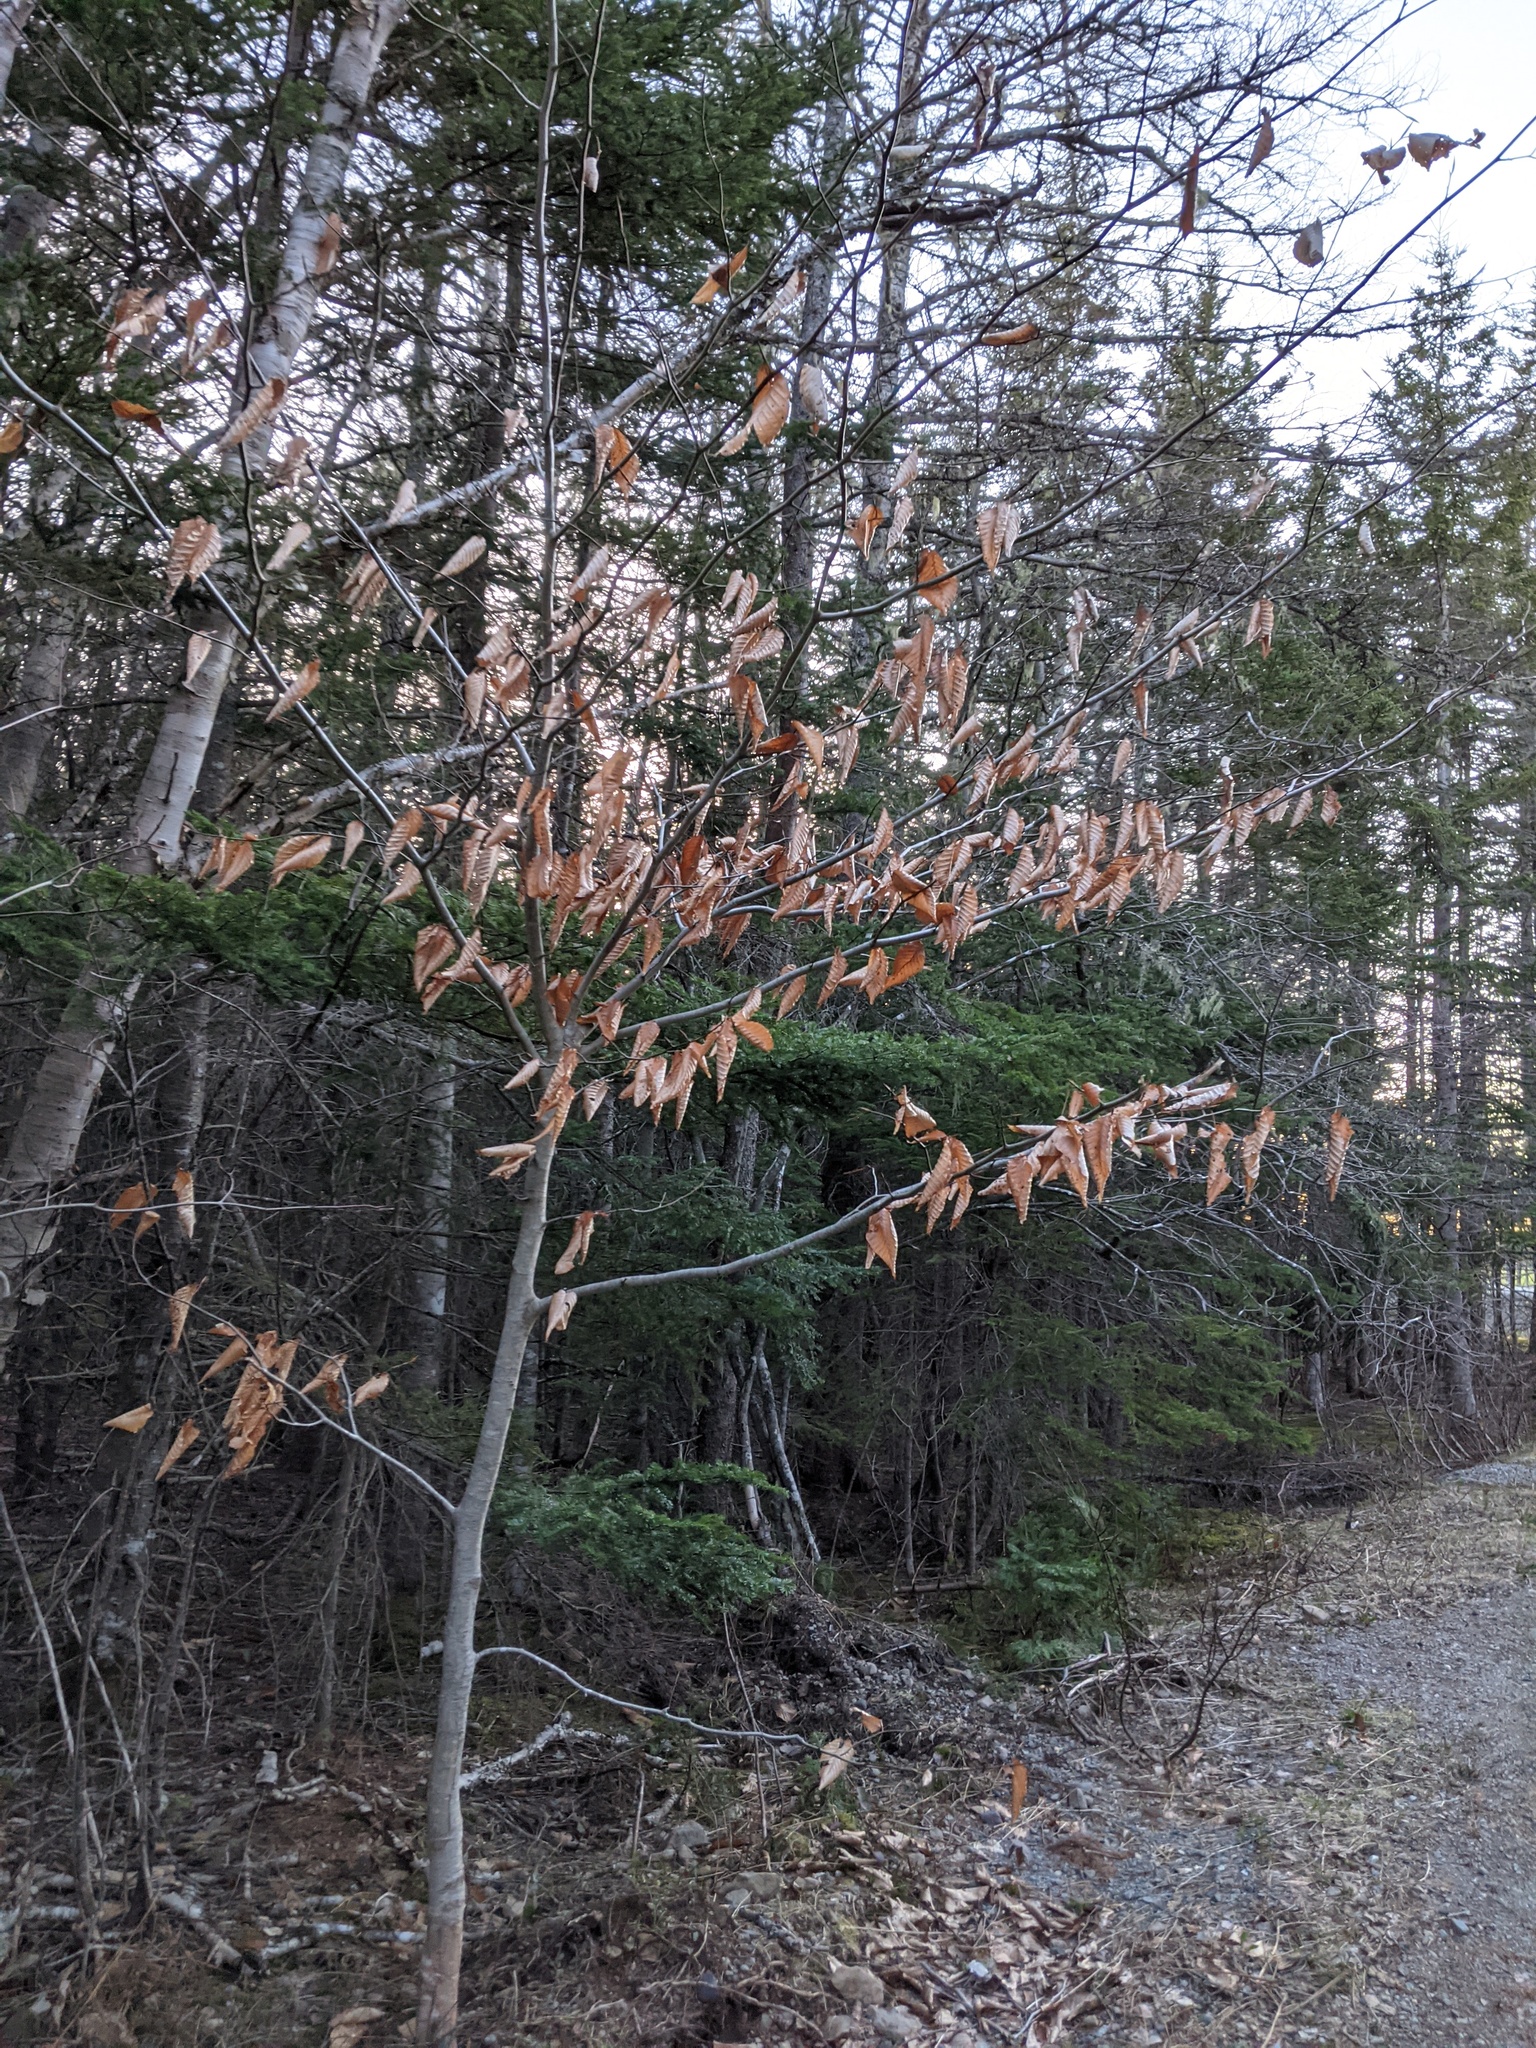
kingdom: Plantae
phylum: Tracheophyta
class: Magnoliopsida
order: Fagales
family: Fagaceae
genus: Fagus
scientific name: Fagus grandifolia
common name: American beech
